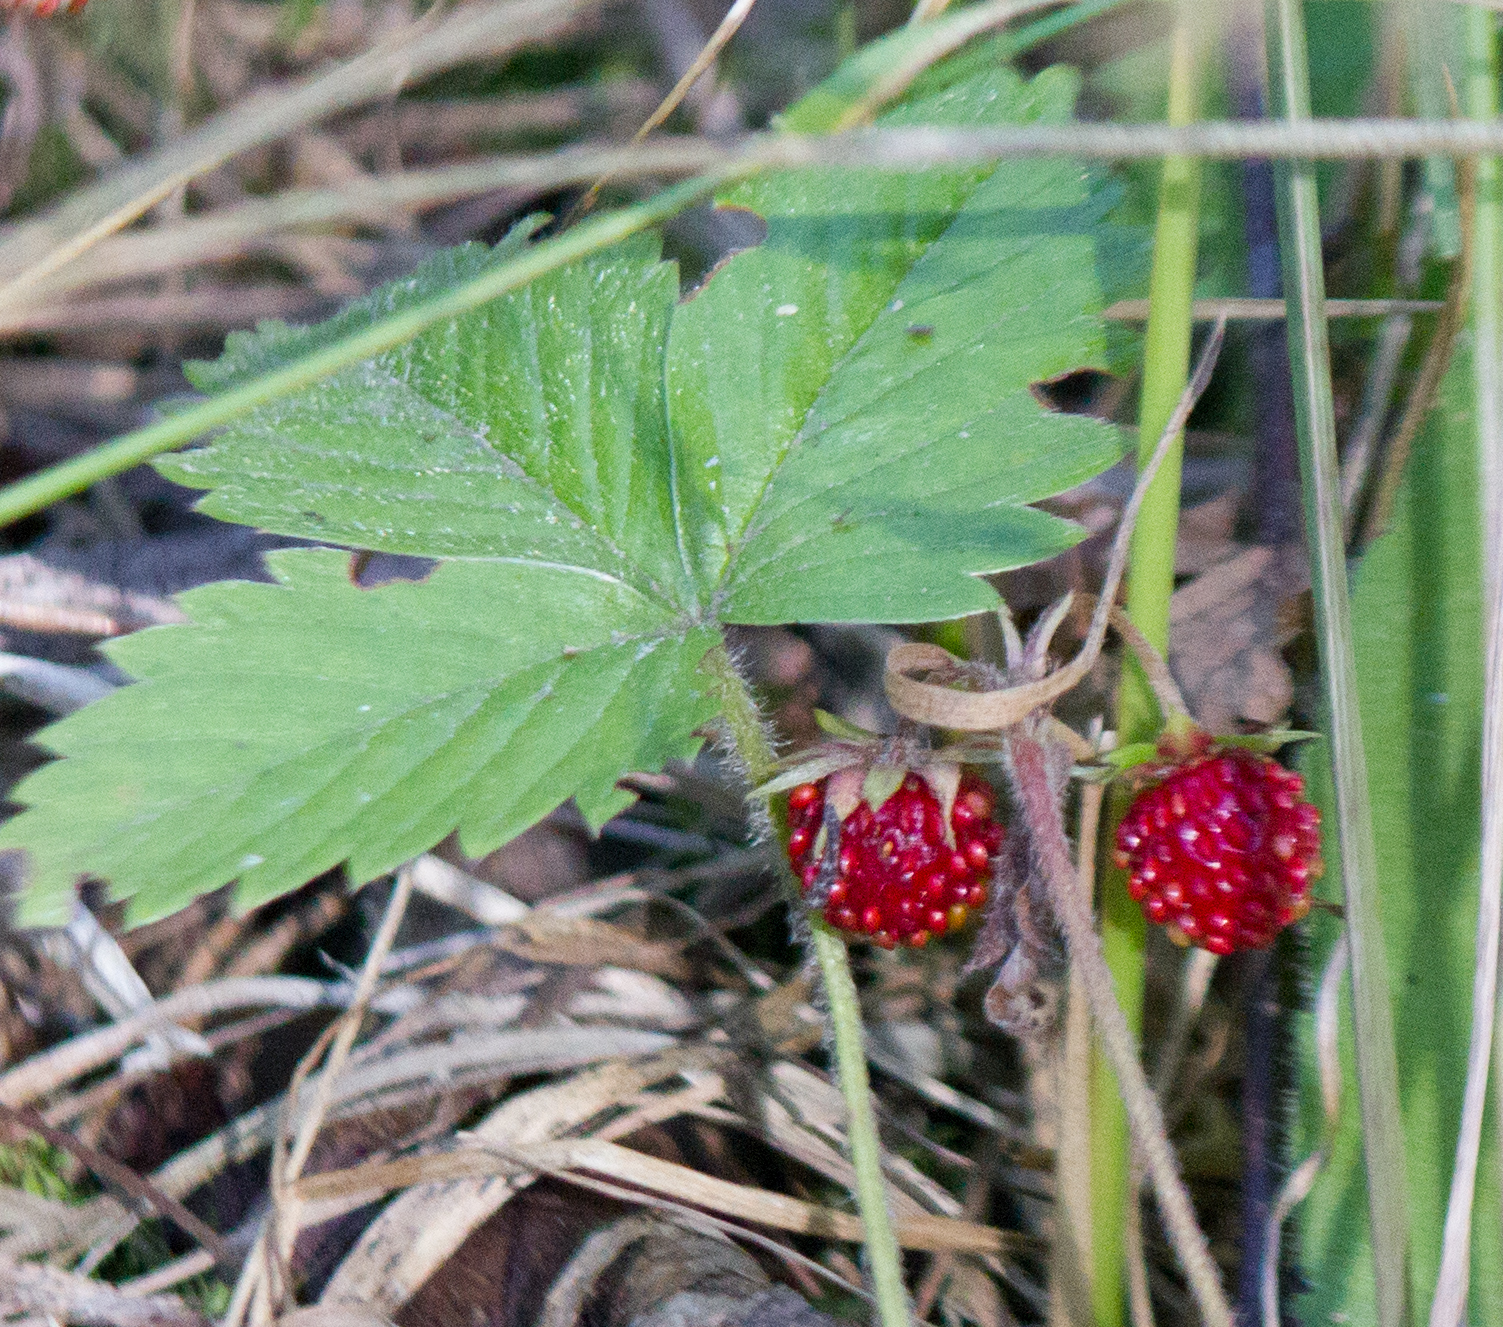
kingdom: Plantae
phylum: Tracheophyta
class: Magnoliopsida
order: Rosales
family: Rosaceae
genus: Fragaria
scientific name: Fragaria vesca
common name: Wild strawberry
